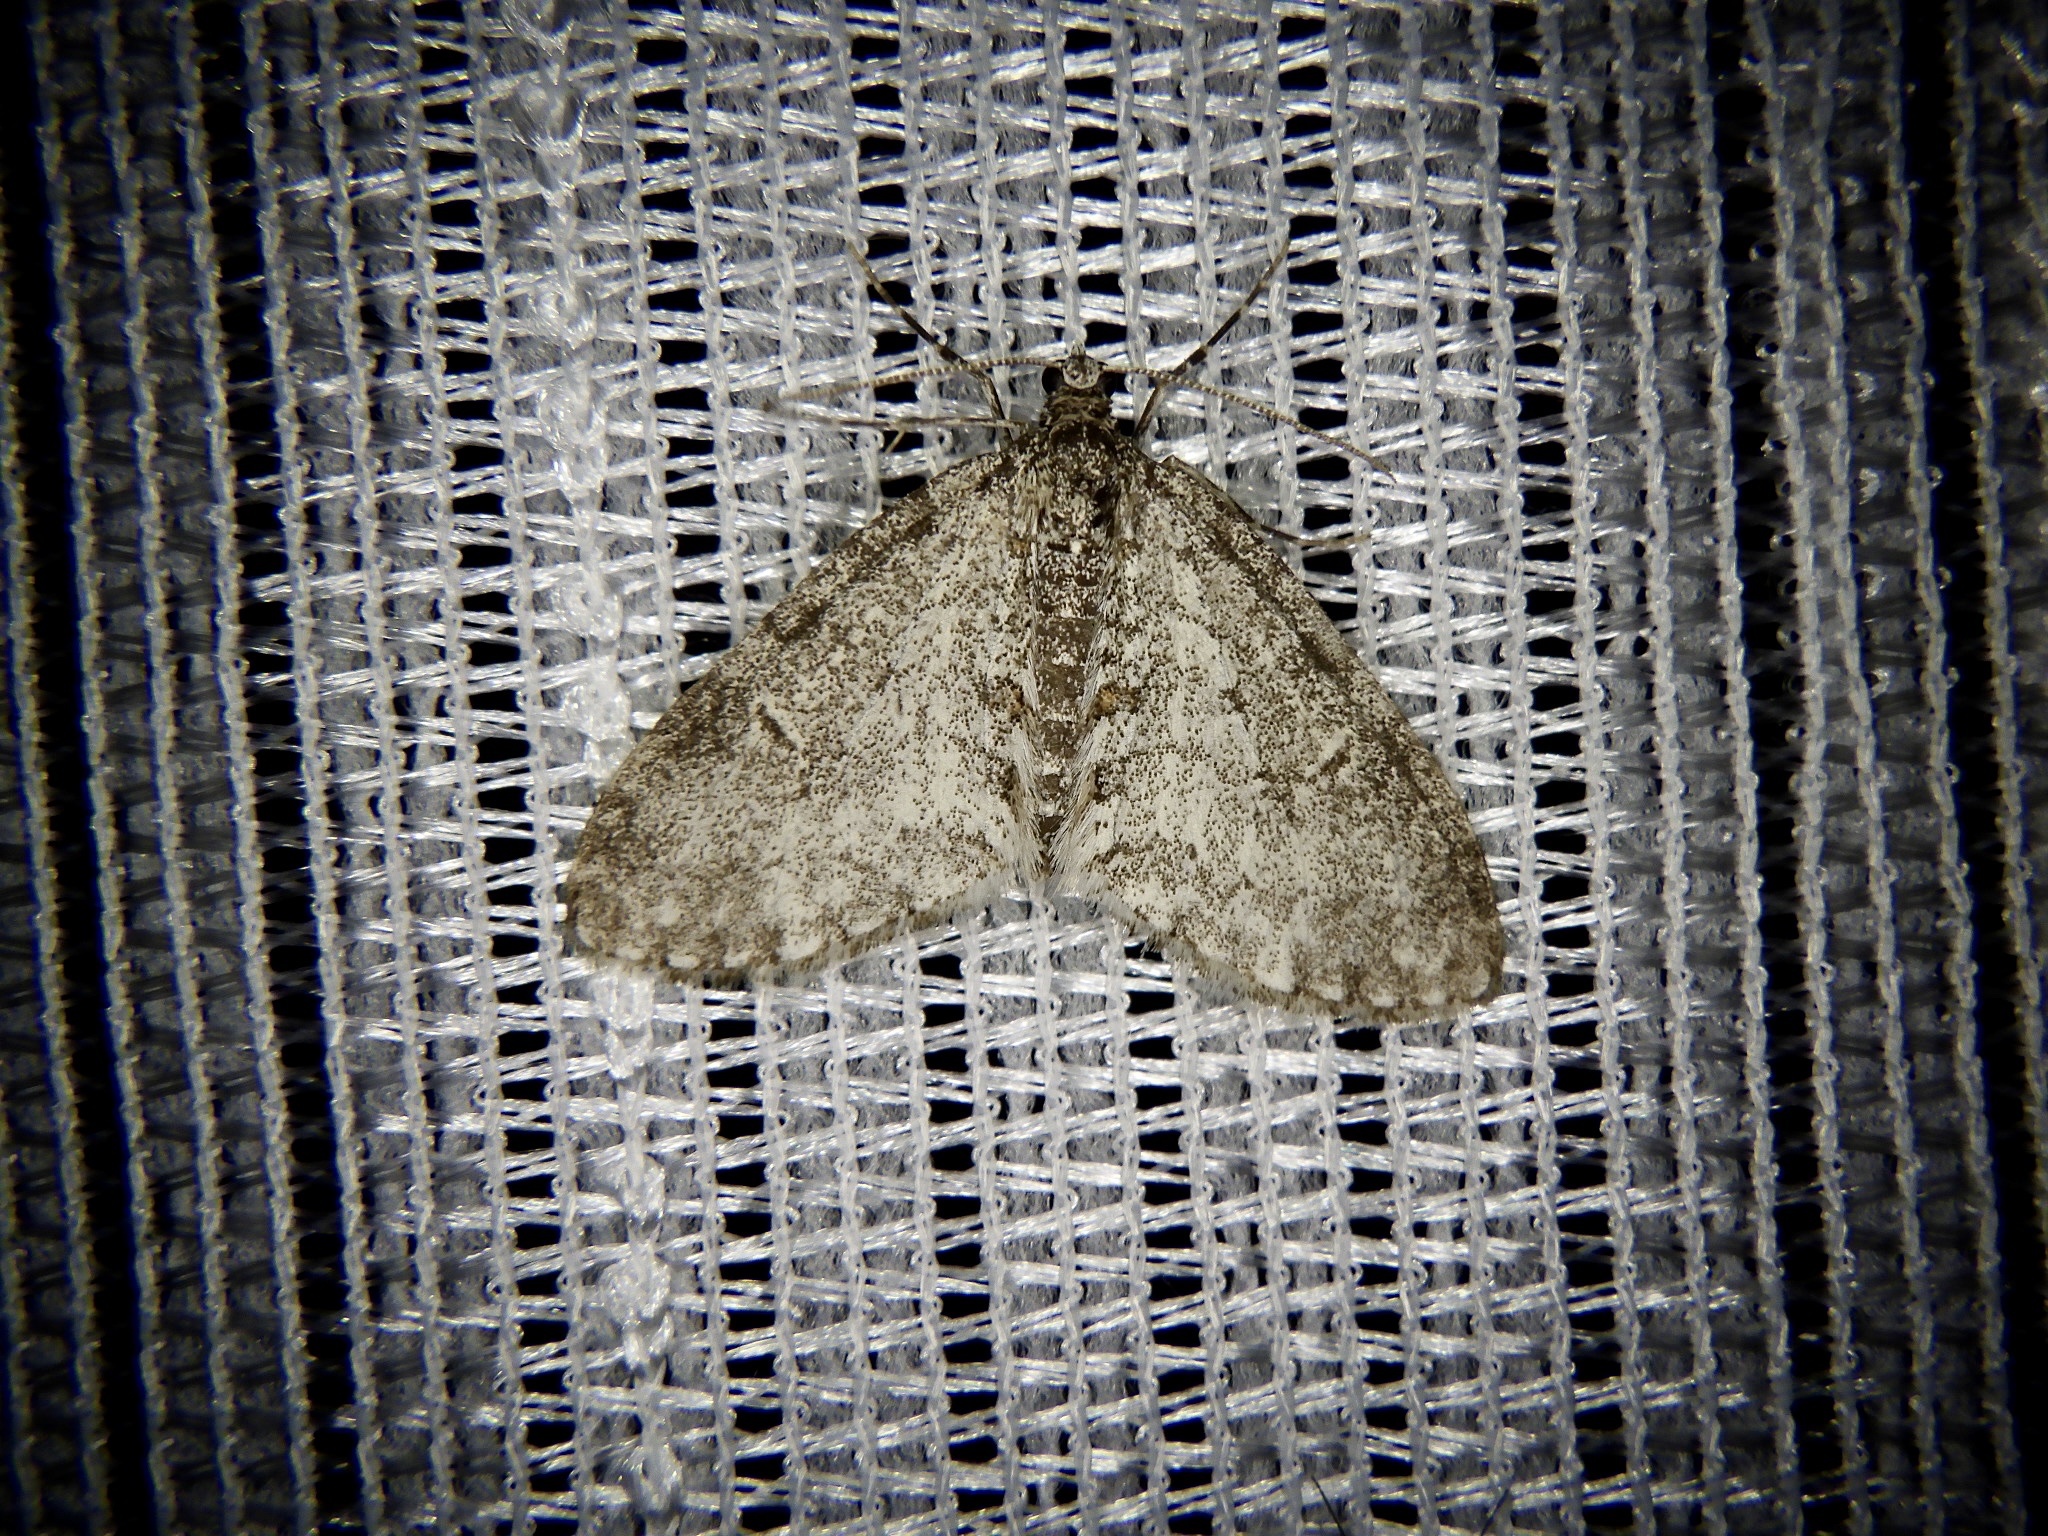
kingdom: Animalia
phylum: Arthropoda
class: Insecta
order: Lepidoptera
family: Geometridae
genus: Trichopteryx
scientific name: Trichopteryx hemana
